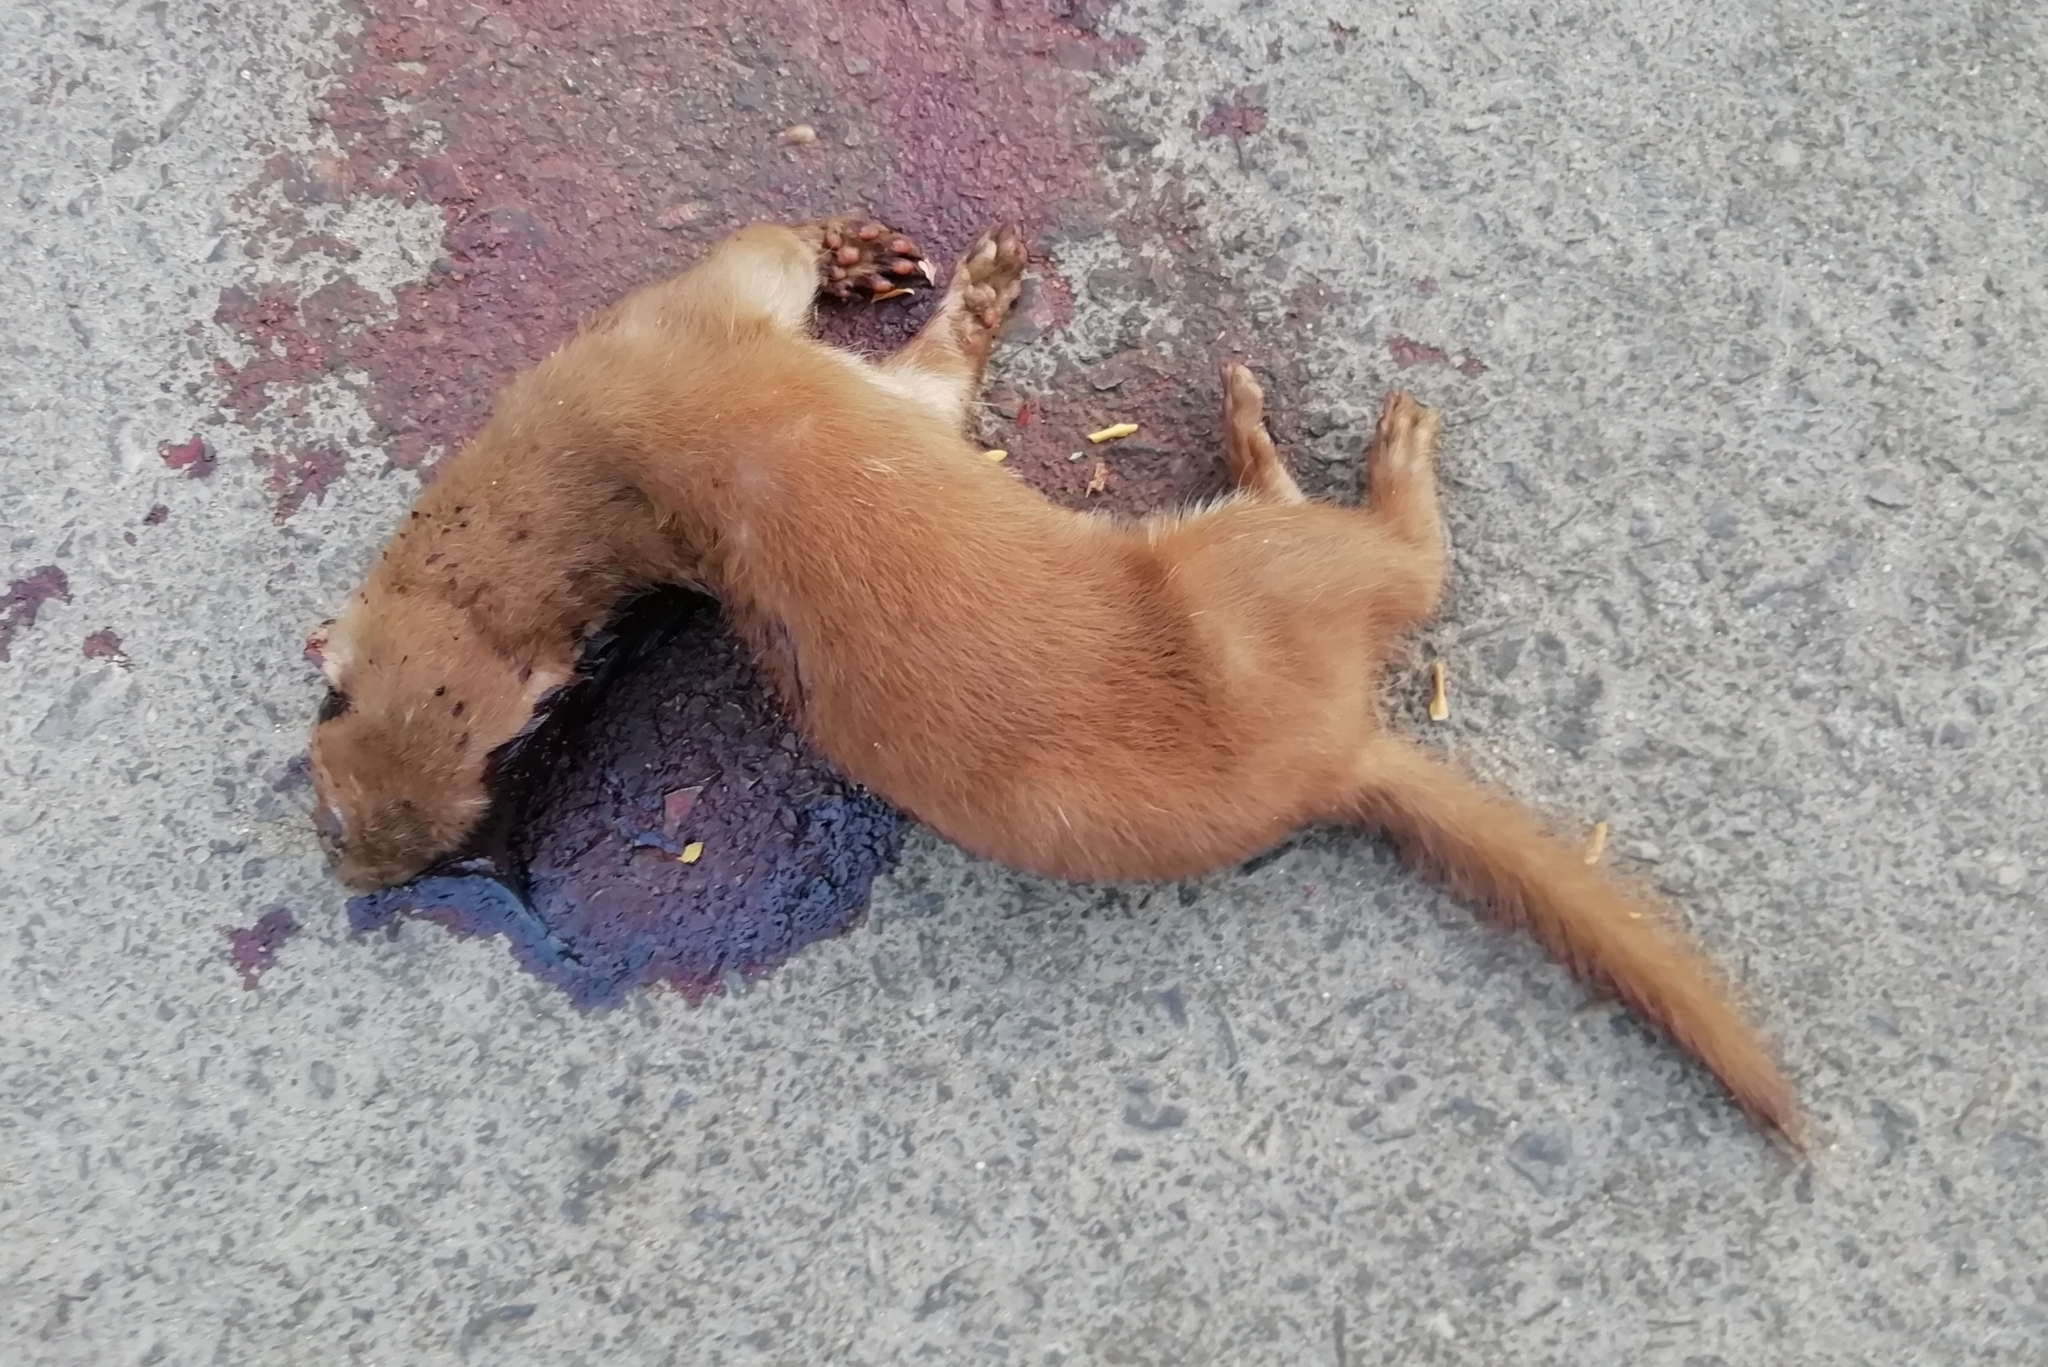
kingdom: Animalia
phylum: Chordata
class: Mammalia
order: Carnivora
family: Mustelidae
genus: Mustela
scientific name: Mustela nivalis
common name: Least weasel
